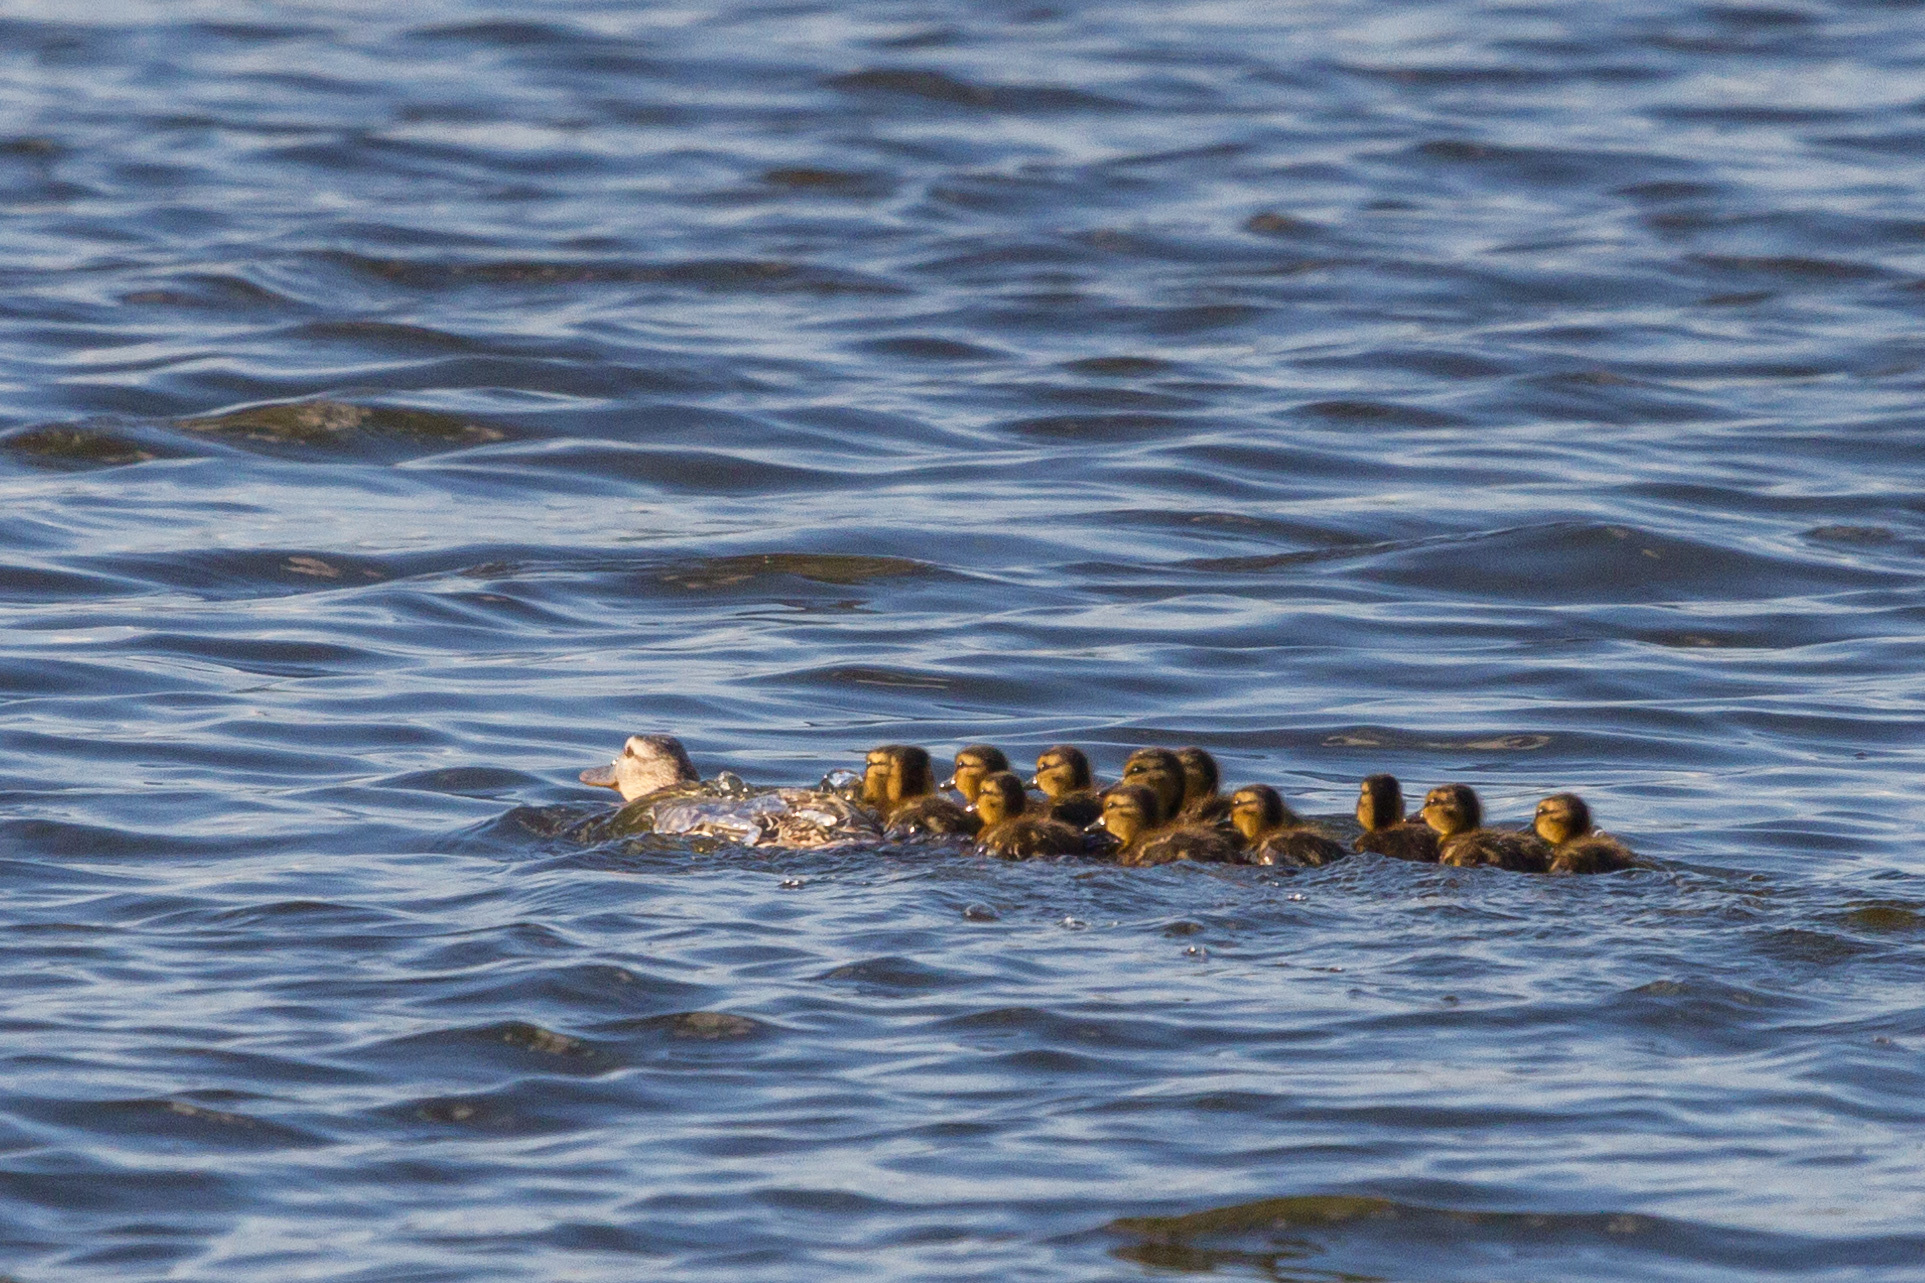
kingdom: Animalia
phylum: Chordata
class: Aves
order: Anseriformes
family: Anatidae
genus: Anas
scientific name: Anas platyrhynchos
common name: Mallard
